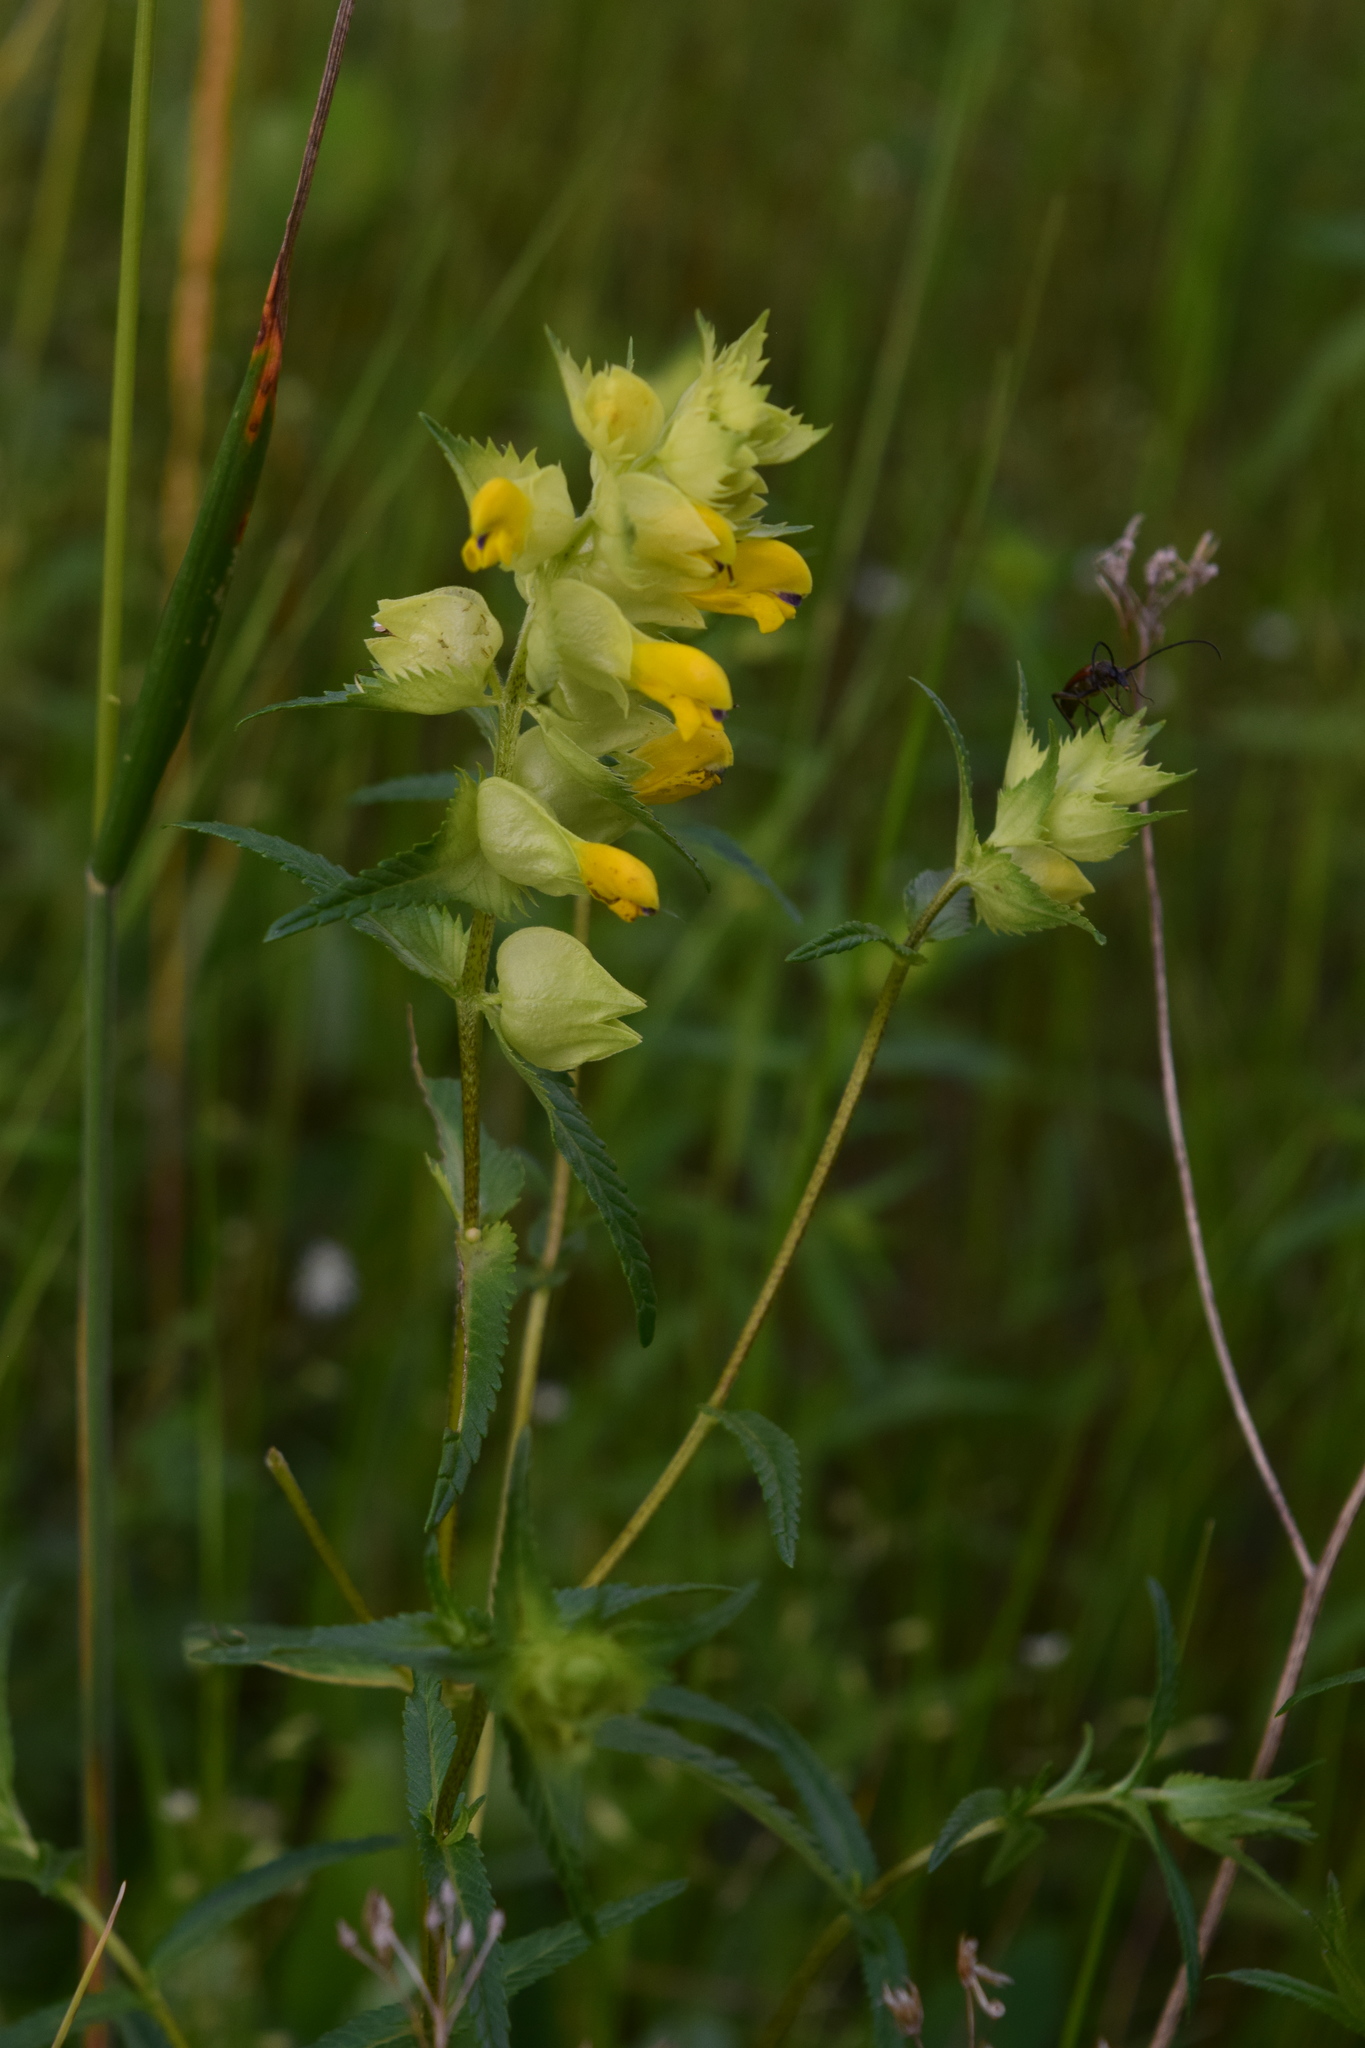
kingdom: Plantae
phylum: Tracheophyta
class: Magnoliopsida
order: Lamiales
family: Orobanchaceae
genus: Rhinanthus
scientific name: Rhinanthus serotinus
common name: Late-flowering yellow rattle
